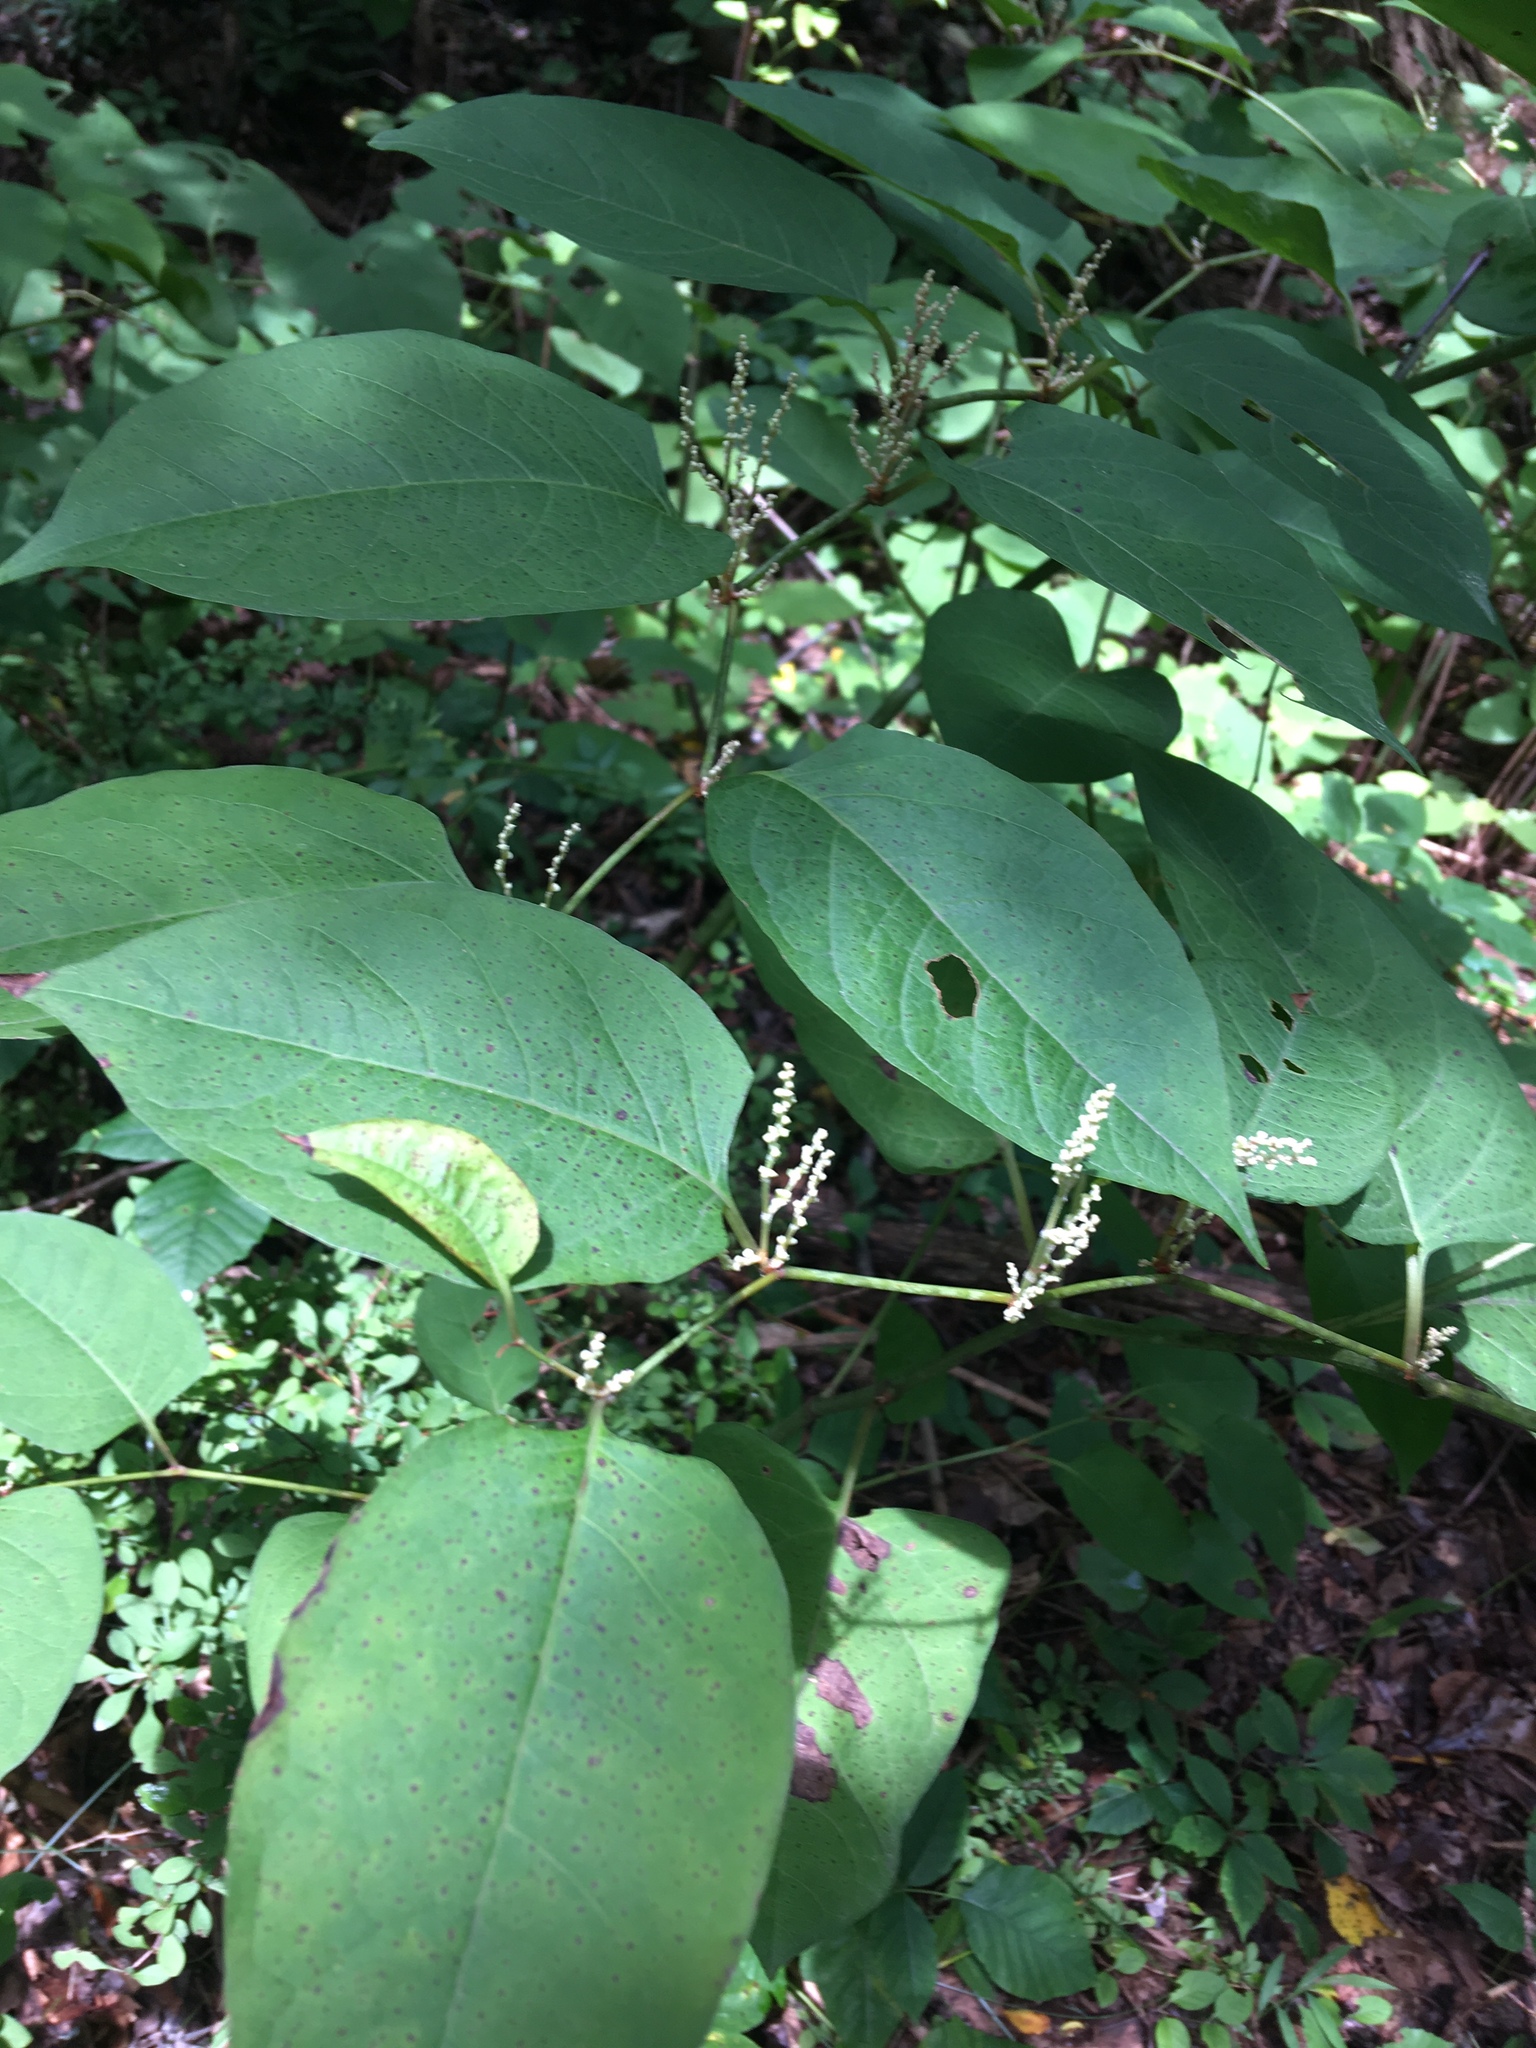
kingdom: Plantae
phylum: Tracheophyta
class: Magnoliopsida
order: Caryophyllales
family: Polygonaceae
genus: Reynoutria
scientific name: Reynoutria japonica
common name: Japanese knotweed
